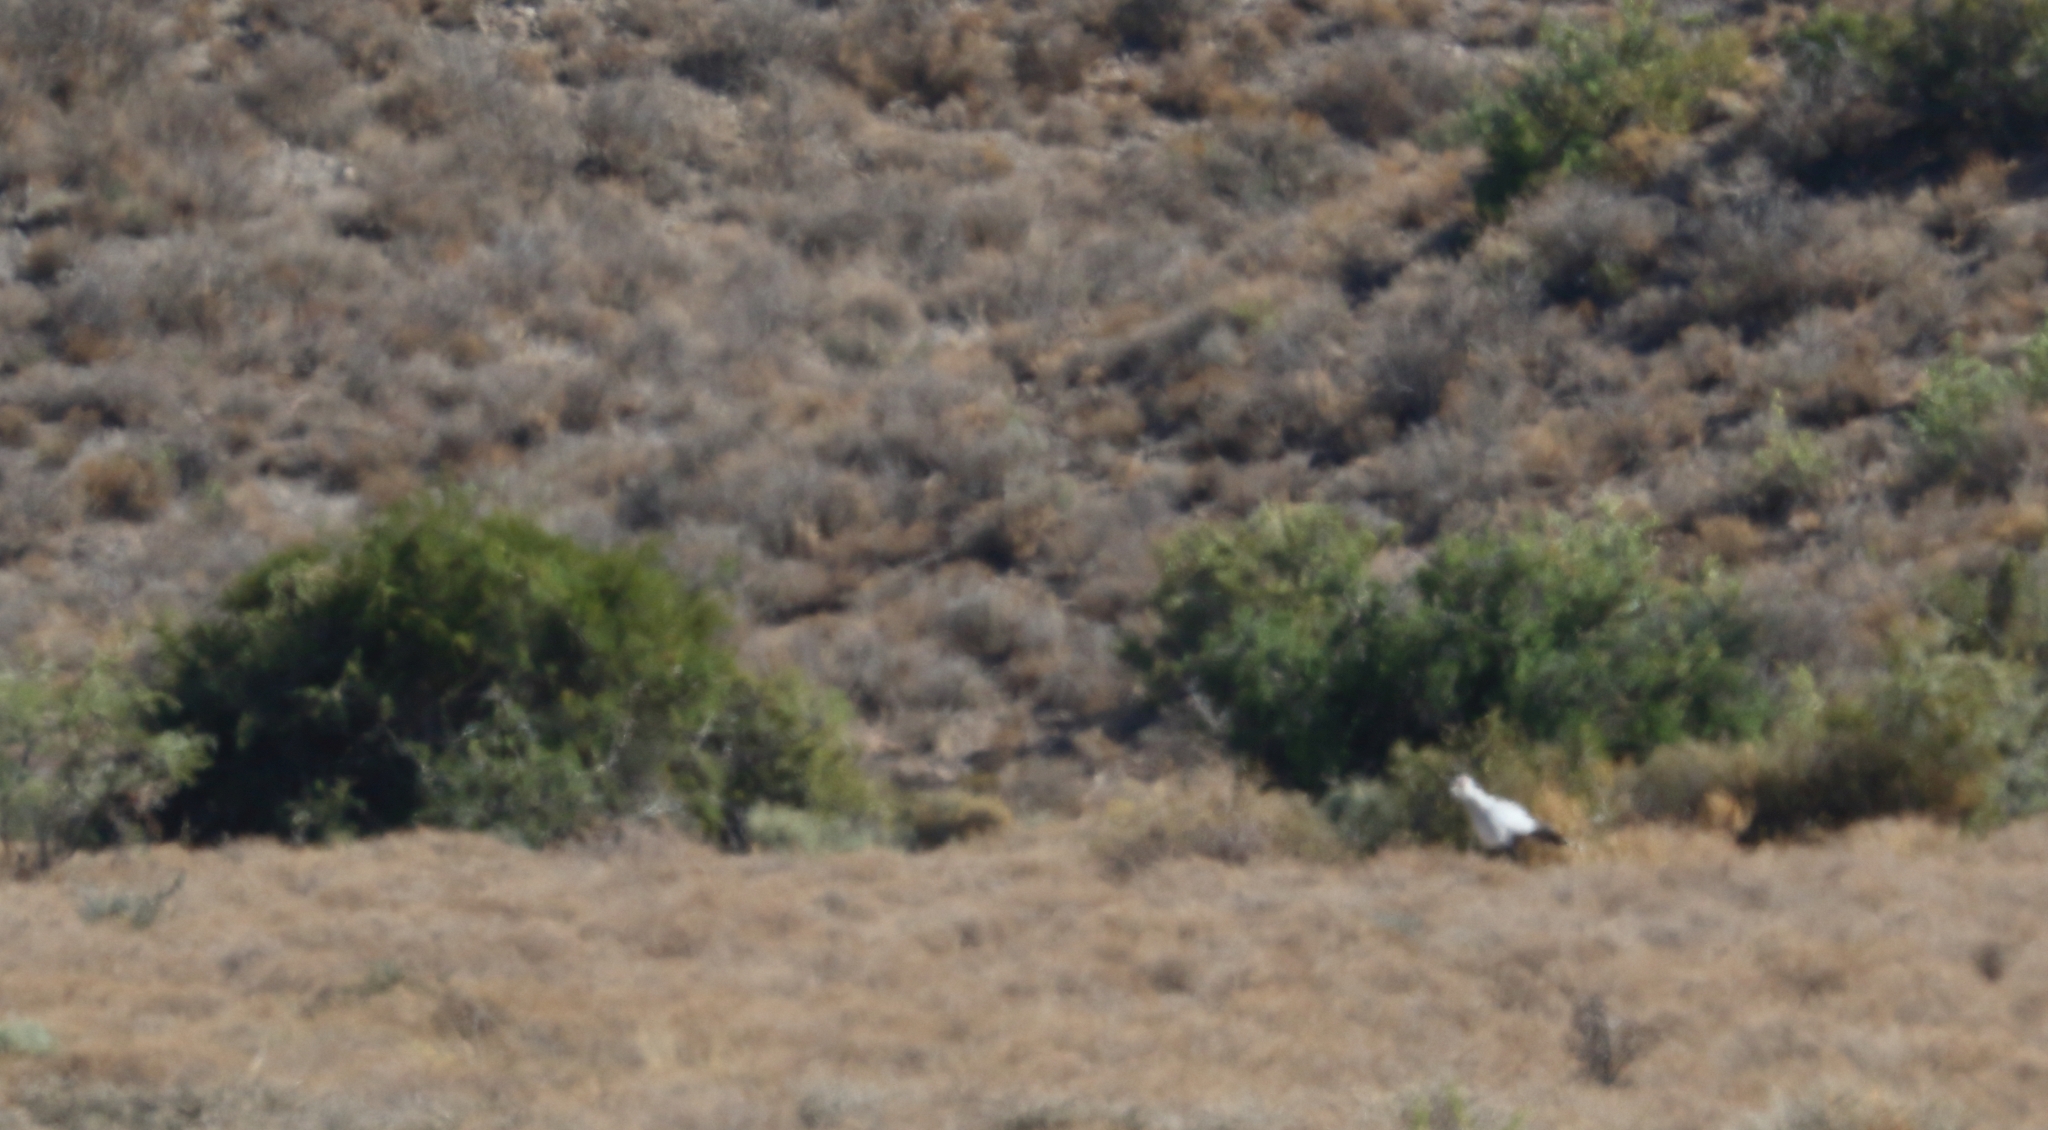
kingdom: Animalia
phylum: Chordata
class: Aves
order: Accipitriformes
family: Sagittariidae
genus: Sagittarius
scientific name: Sagittarius serpentarius
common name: Secretarybird
